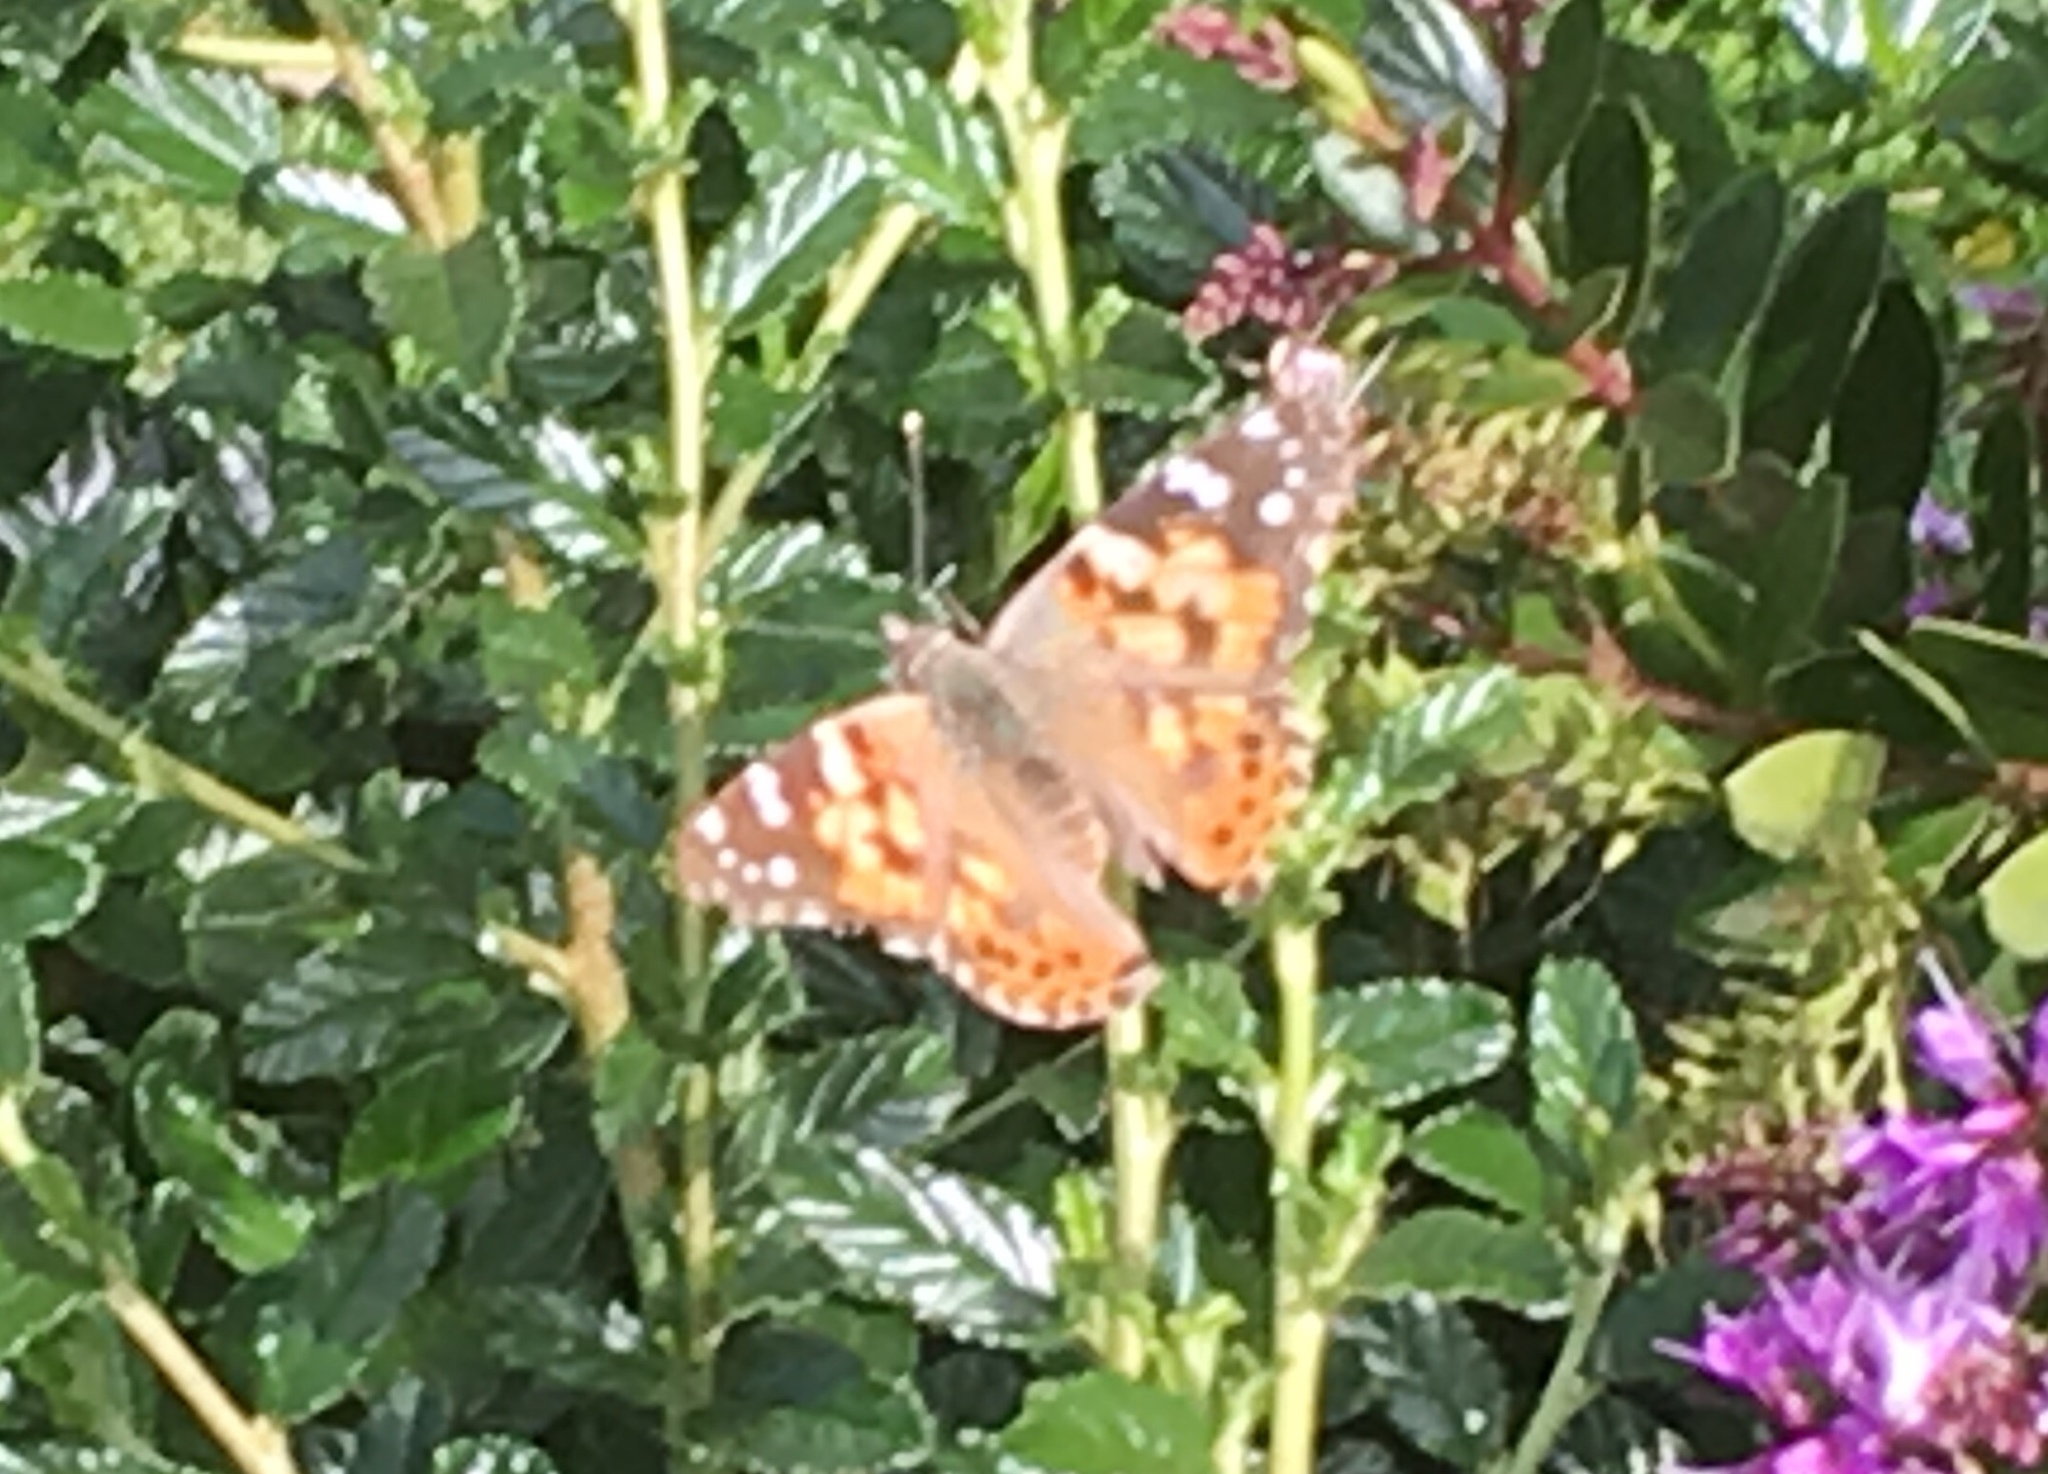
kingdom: Animalia
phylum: Arthropoda
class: Insecta
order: Lepidoptera
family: Nymphalidae
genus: Vanessa
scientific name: Vanessa cardui
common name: Painted lady
